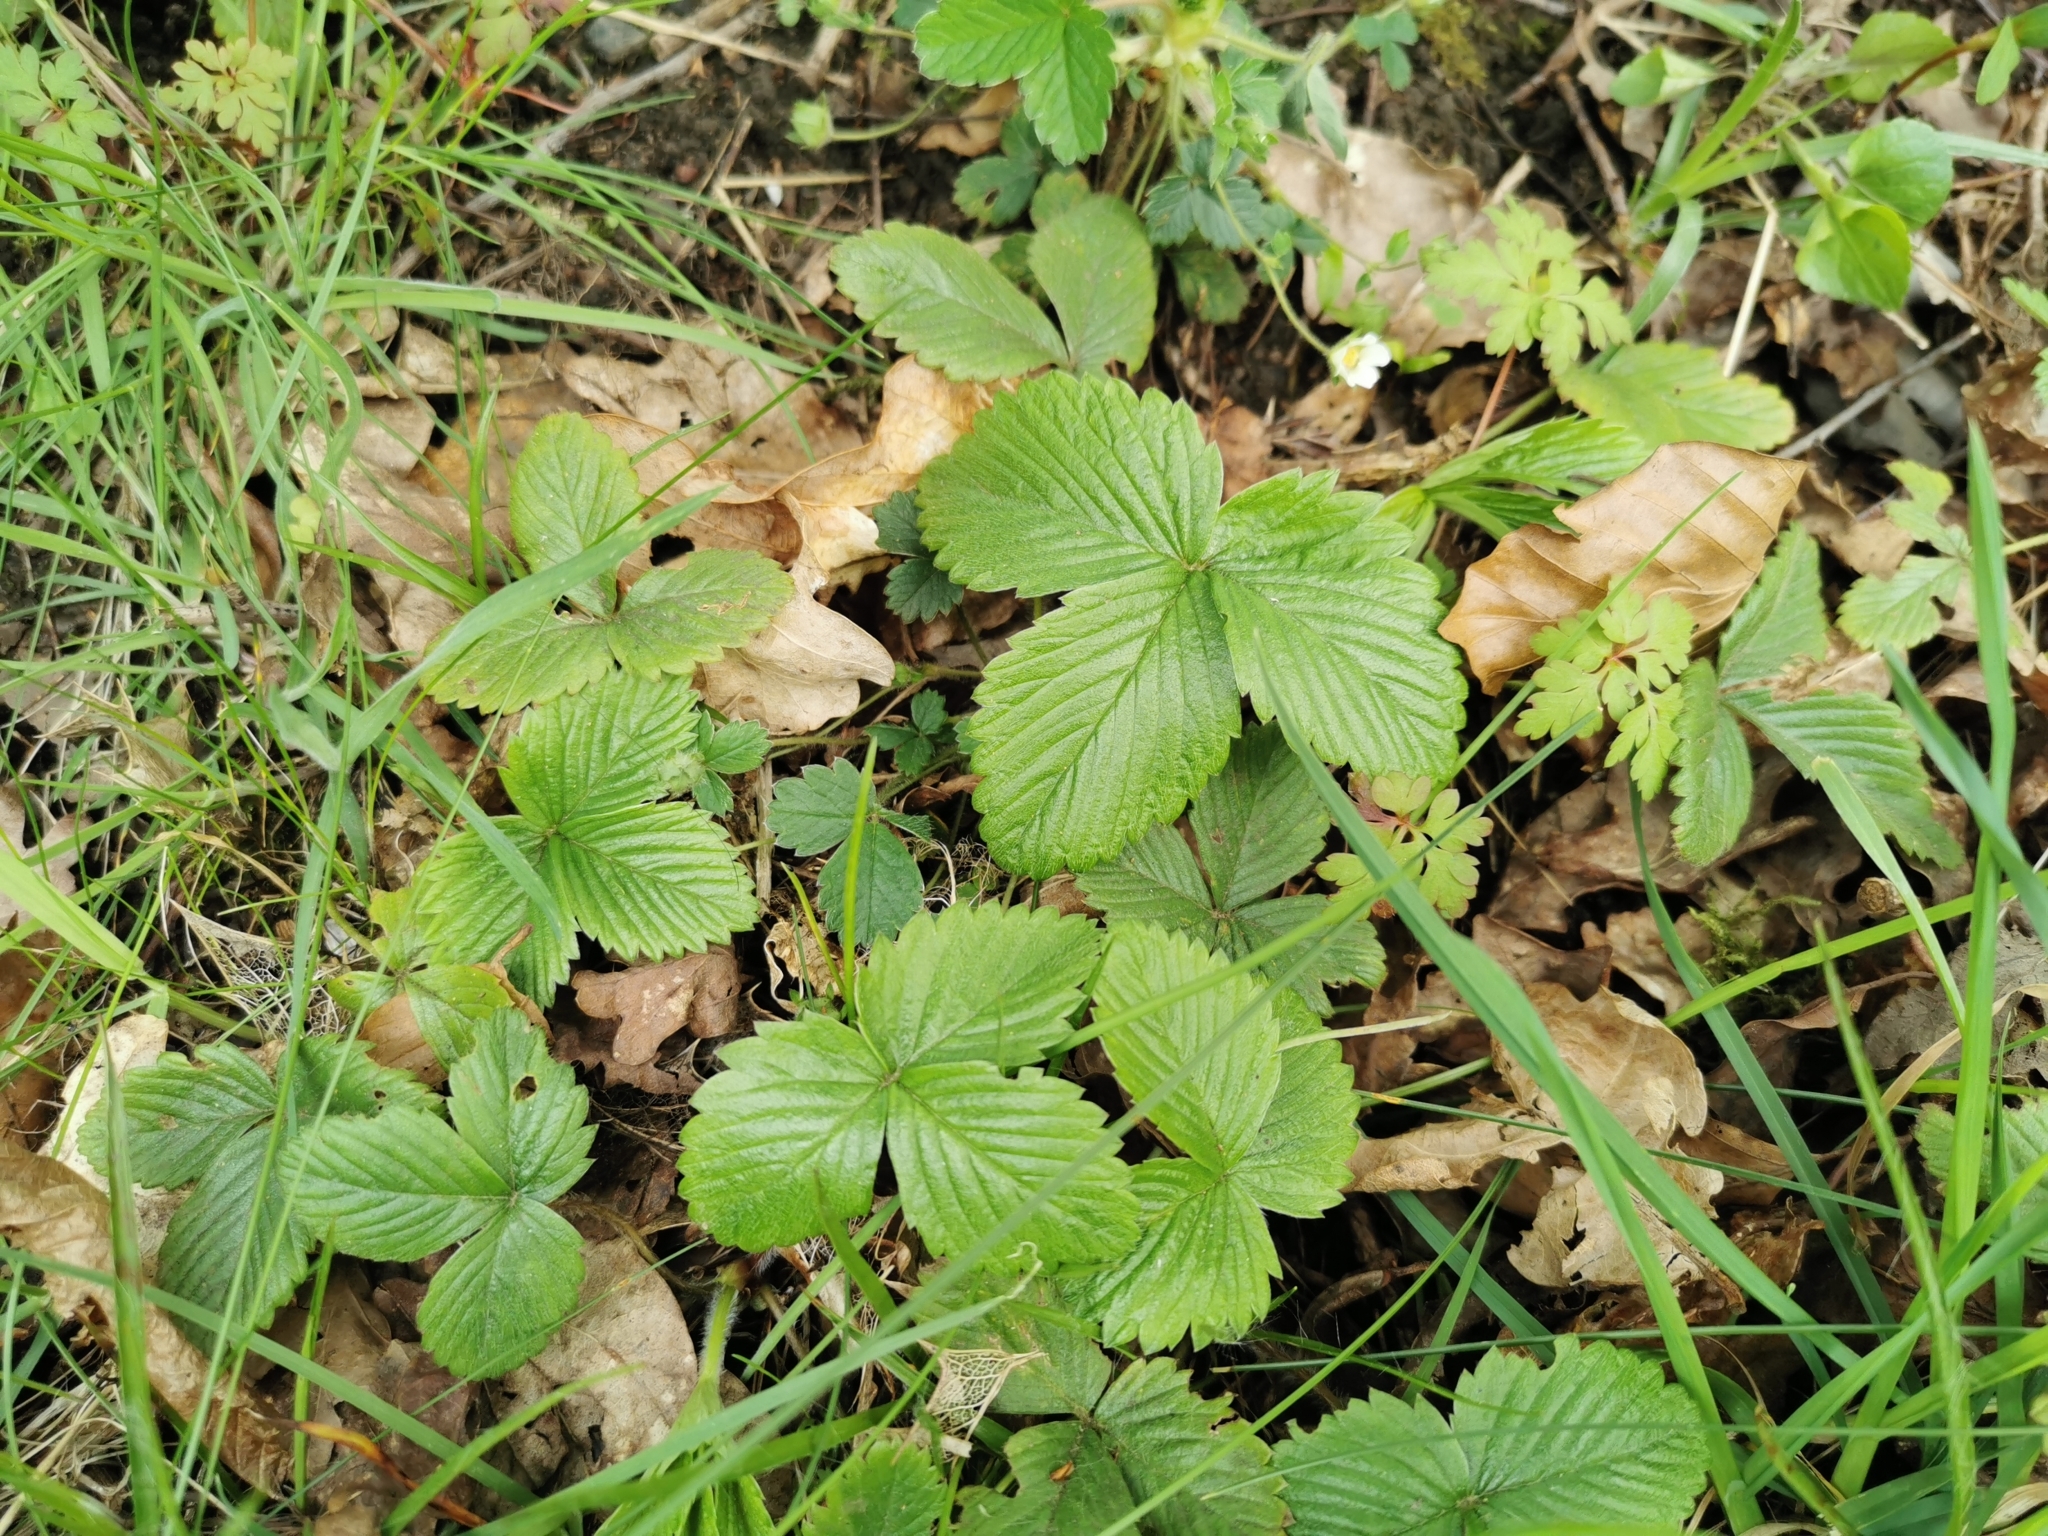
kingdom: Plantae
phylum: Tracheophyta
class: Magnoliopsida
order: Rosales
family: Rosaceae
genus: Potentilla
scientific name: Potentilla sterilis
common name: Barren strawberry
